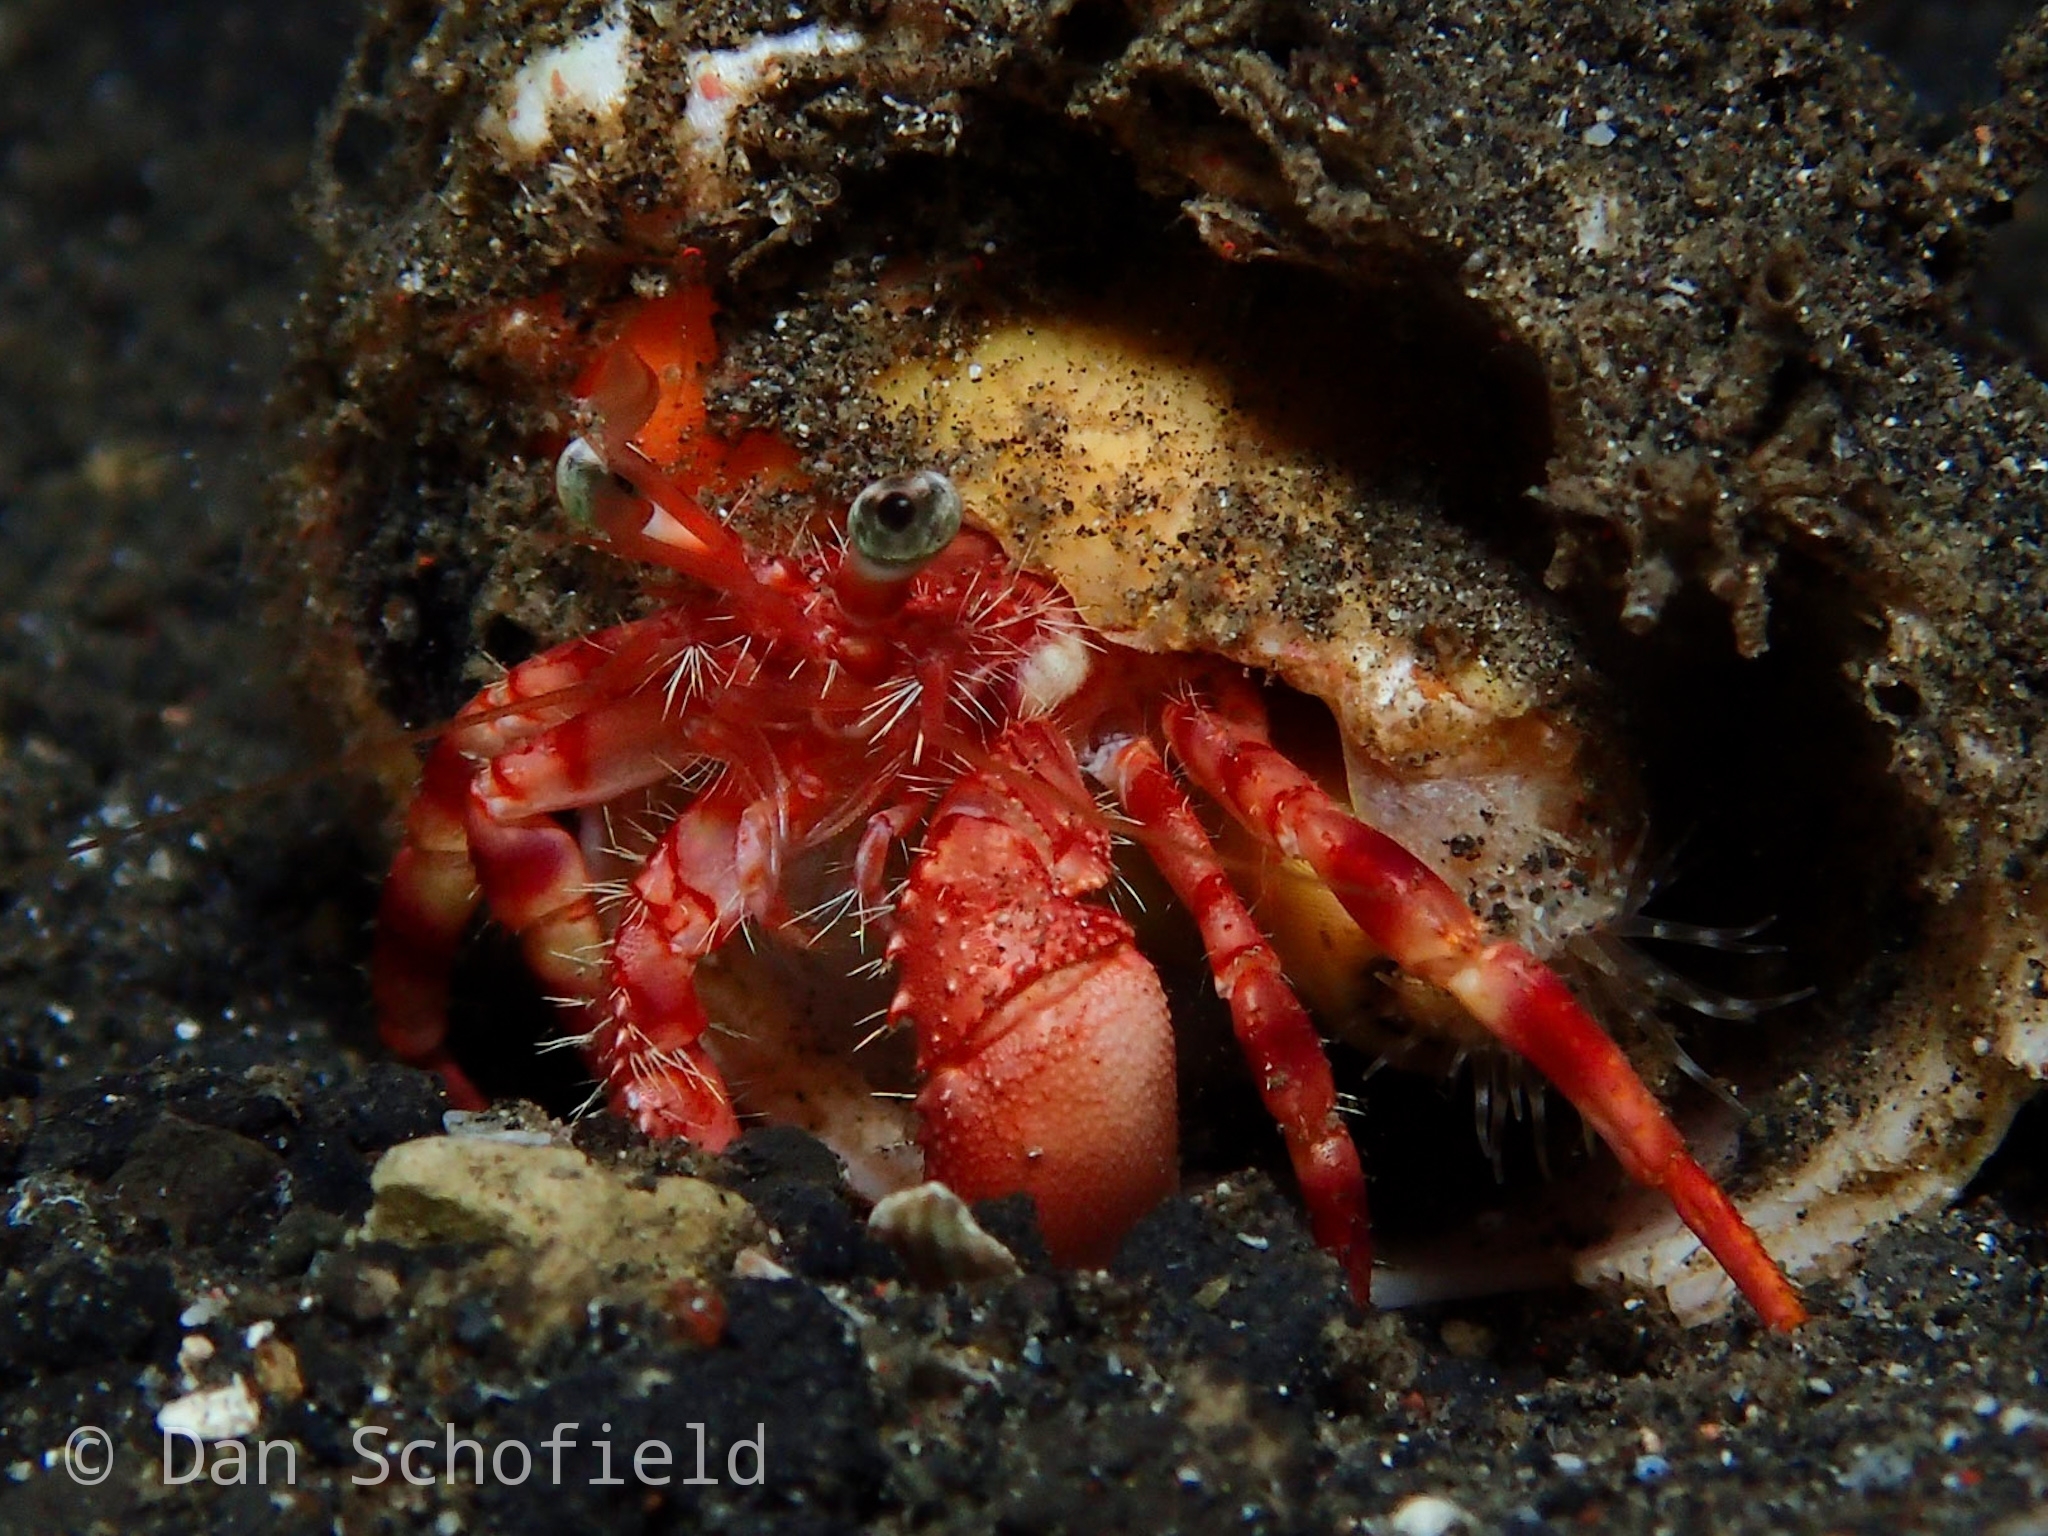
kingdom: Animalia
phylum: Arthropoda
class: Malacostraca
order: Decapoda
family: Diogenidae
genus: Dardanus
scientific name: Dardanus jacquesi
